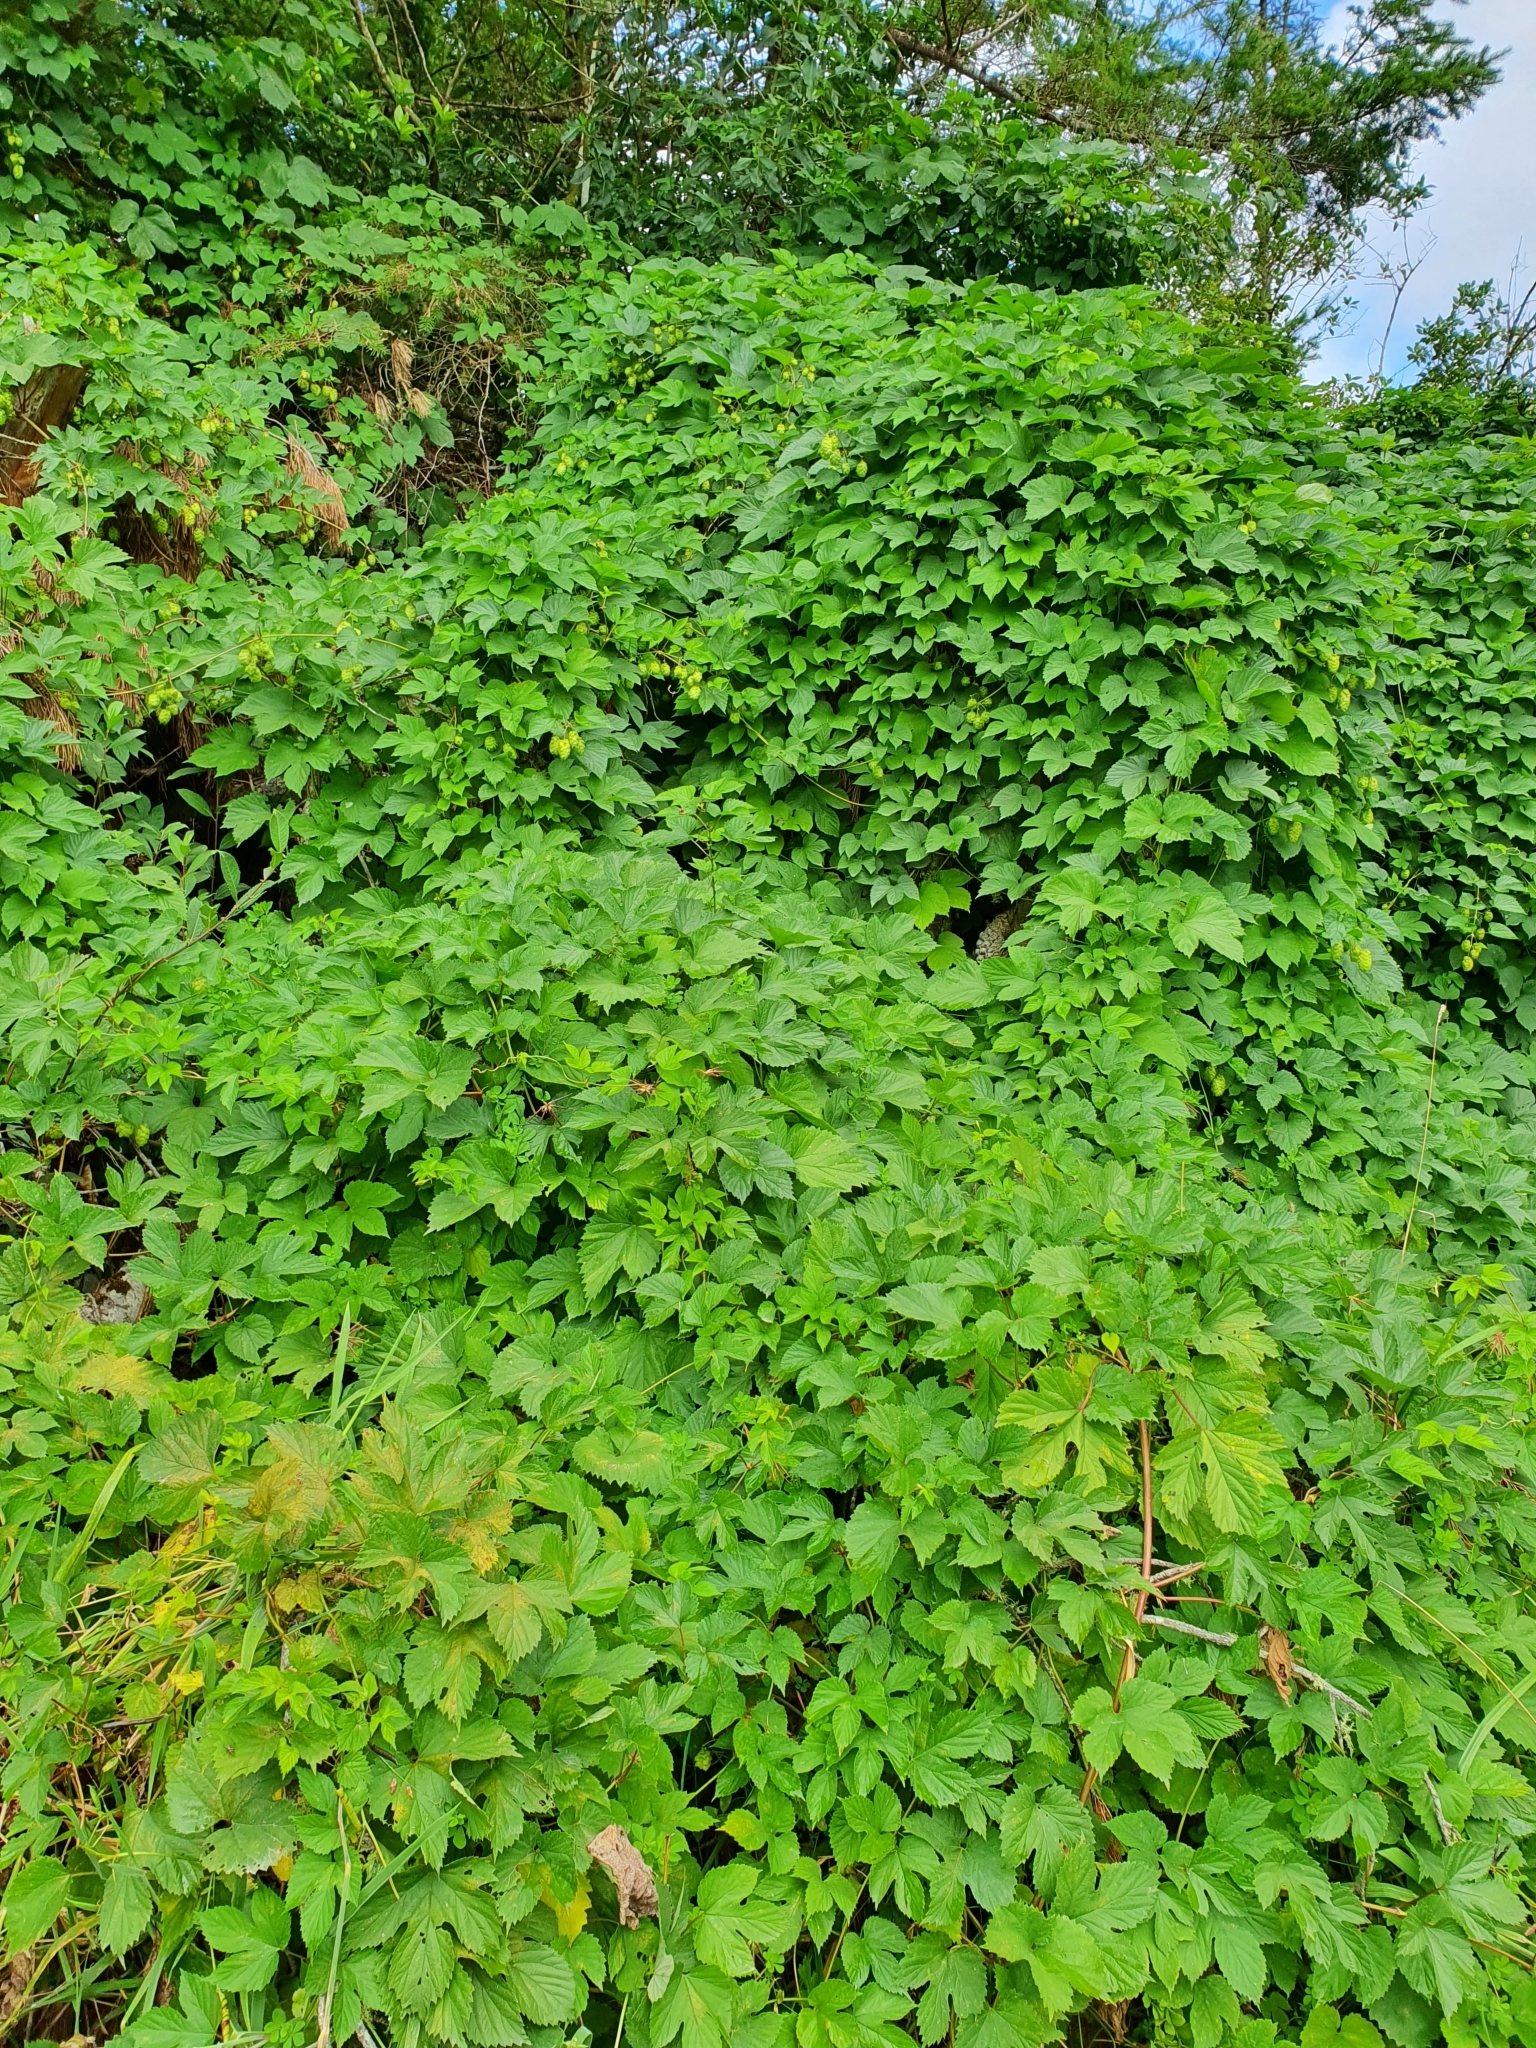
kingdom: Plantae
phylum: Tracheophyta
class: Magnoliopsida
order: Rosales
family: Cannabaceae
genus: Humulus
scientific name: Humulus lupulus
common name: Hop
